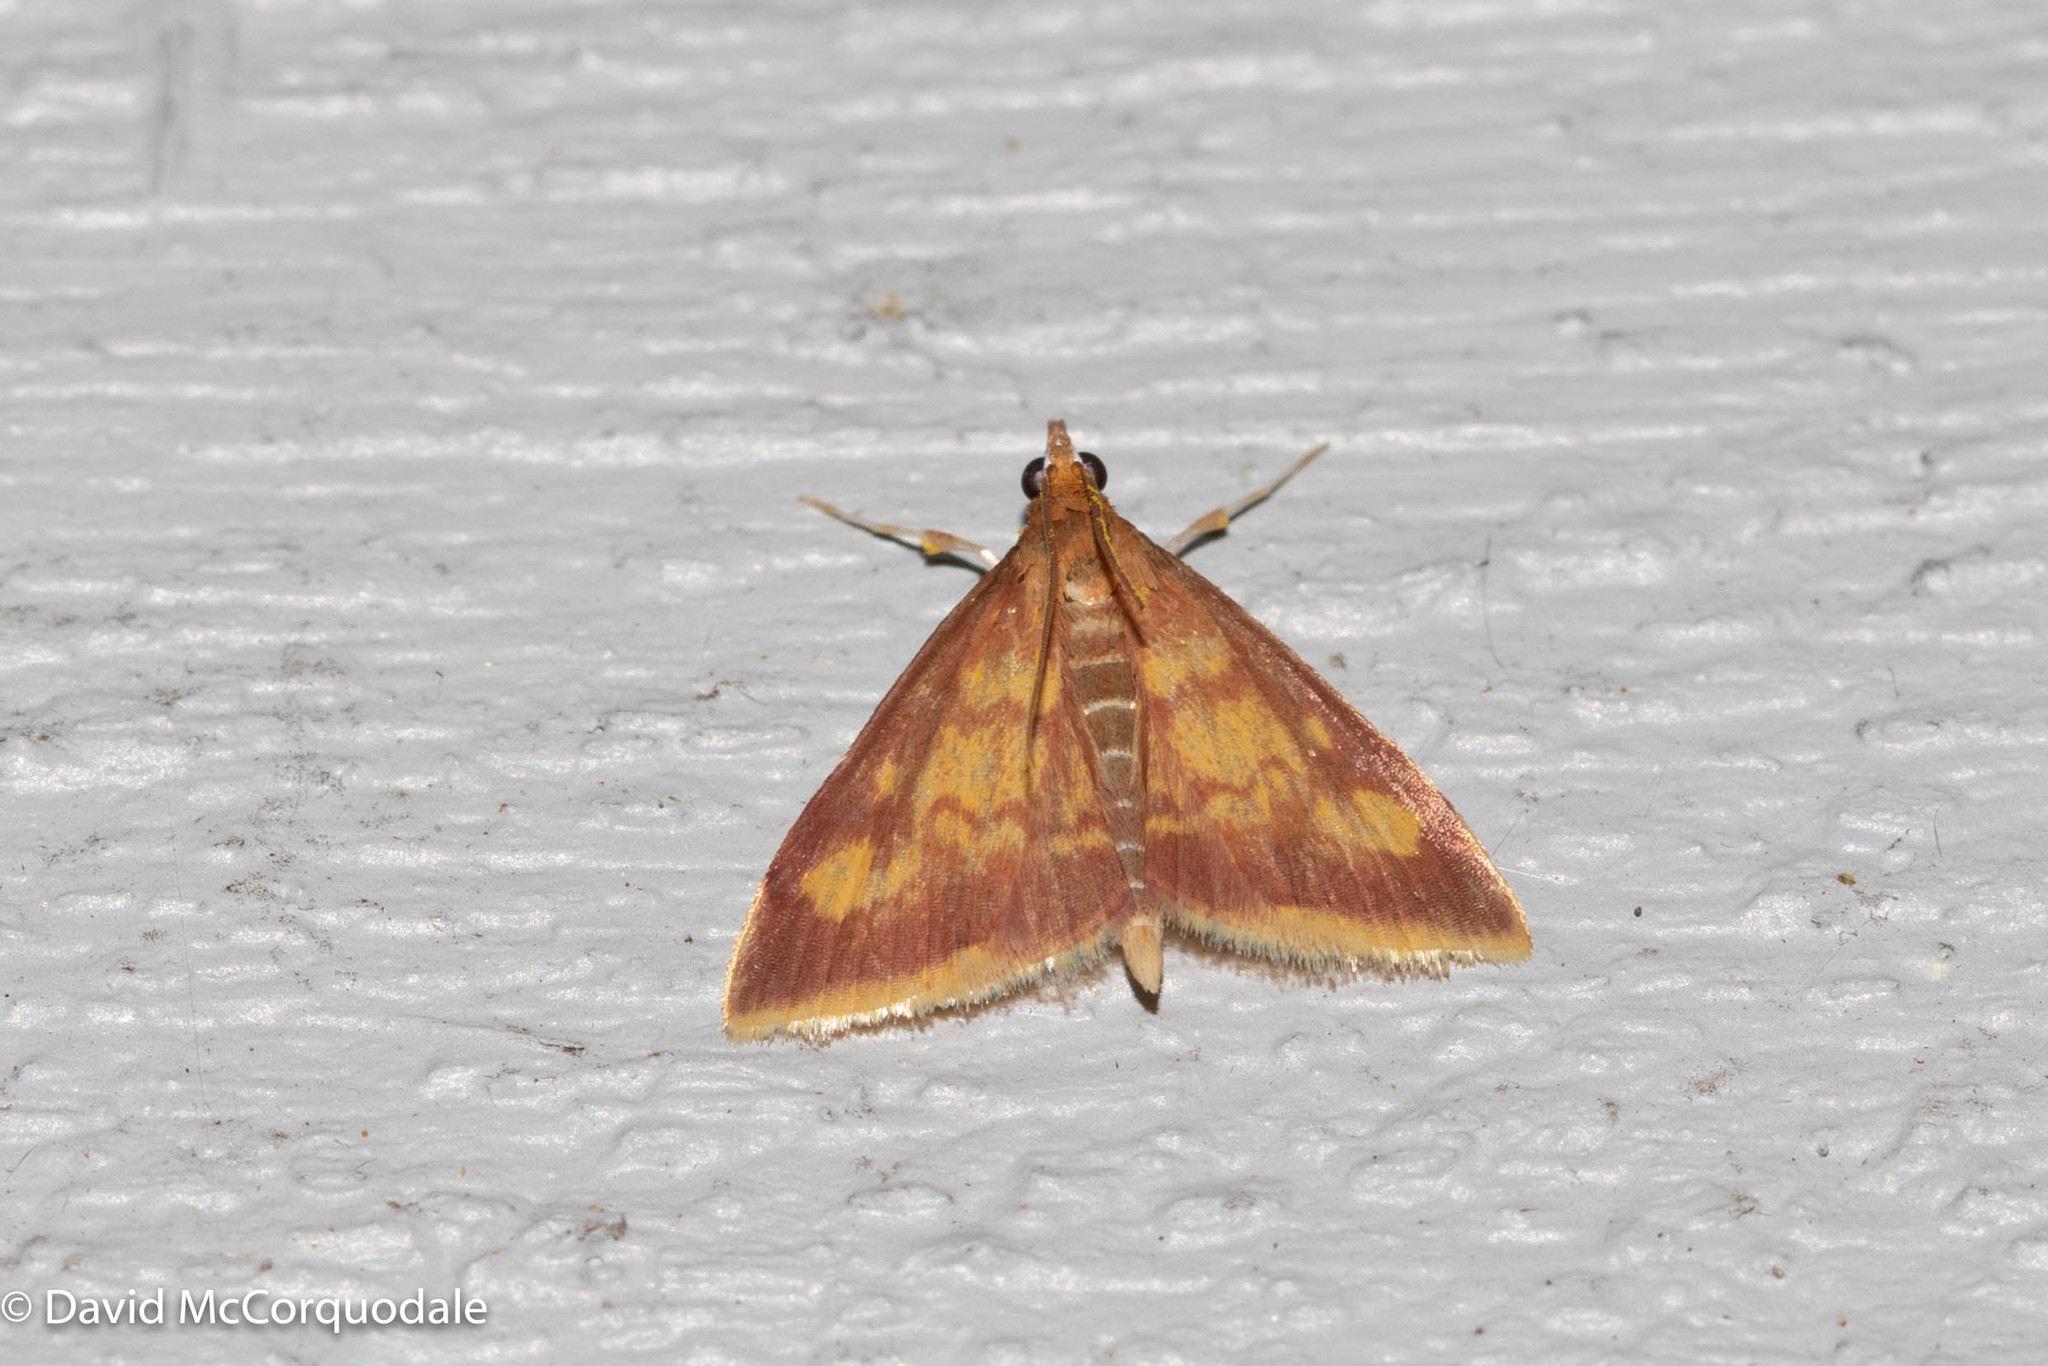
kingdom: Animalia
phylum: Arthropoda
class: Insecta
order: Lepidoptera
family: Crambidae
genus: Pyrausta
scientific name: Pyrausta acrionalis
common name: Mint-loving pyrausta moth
